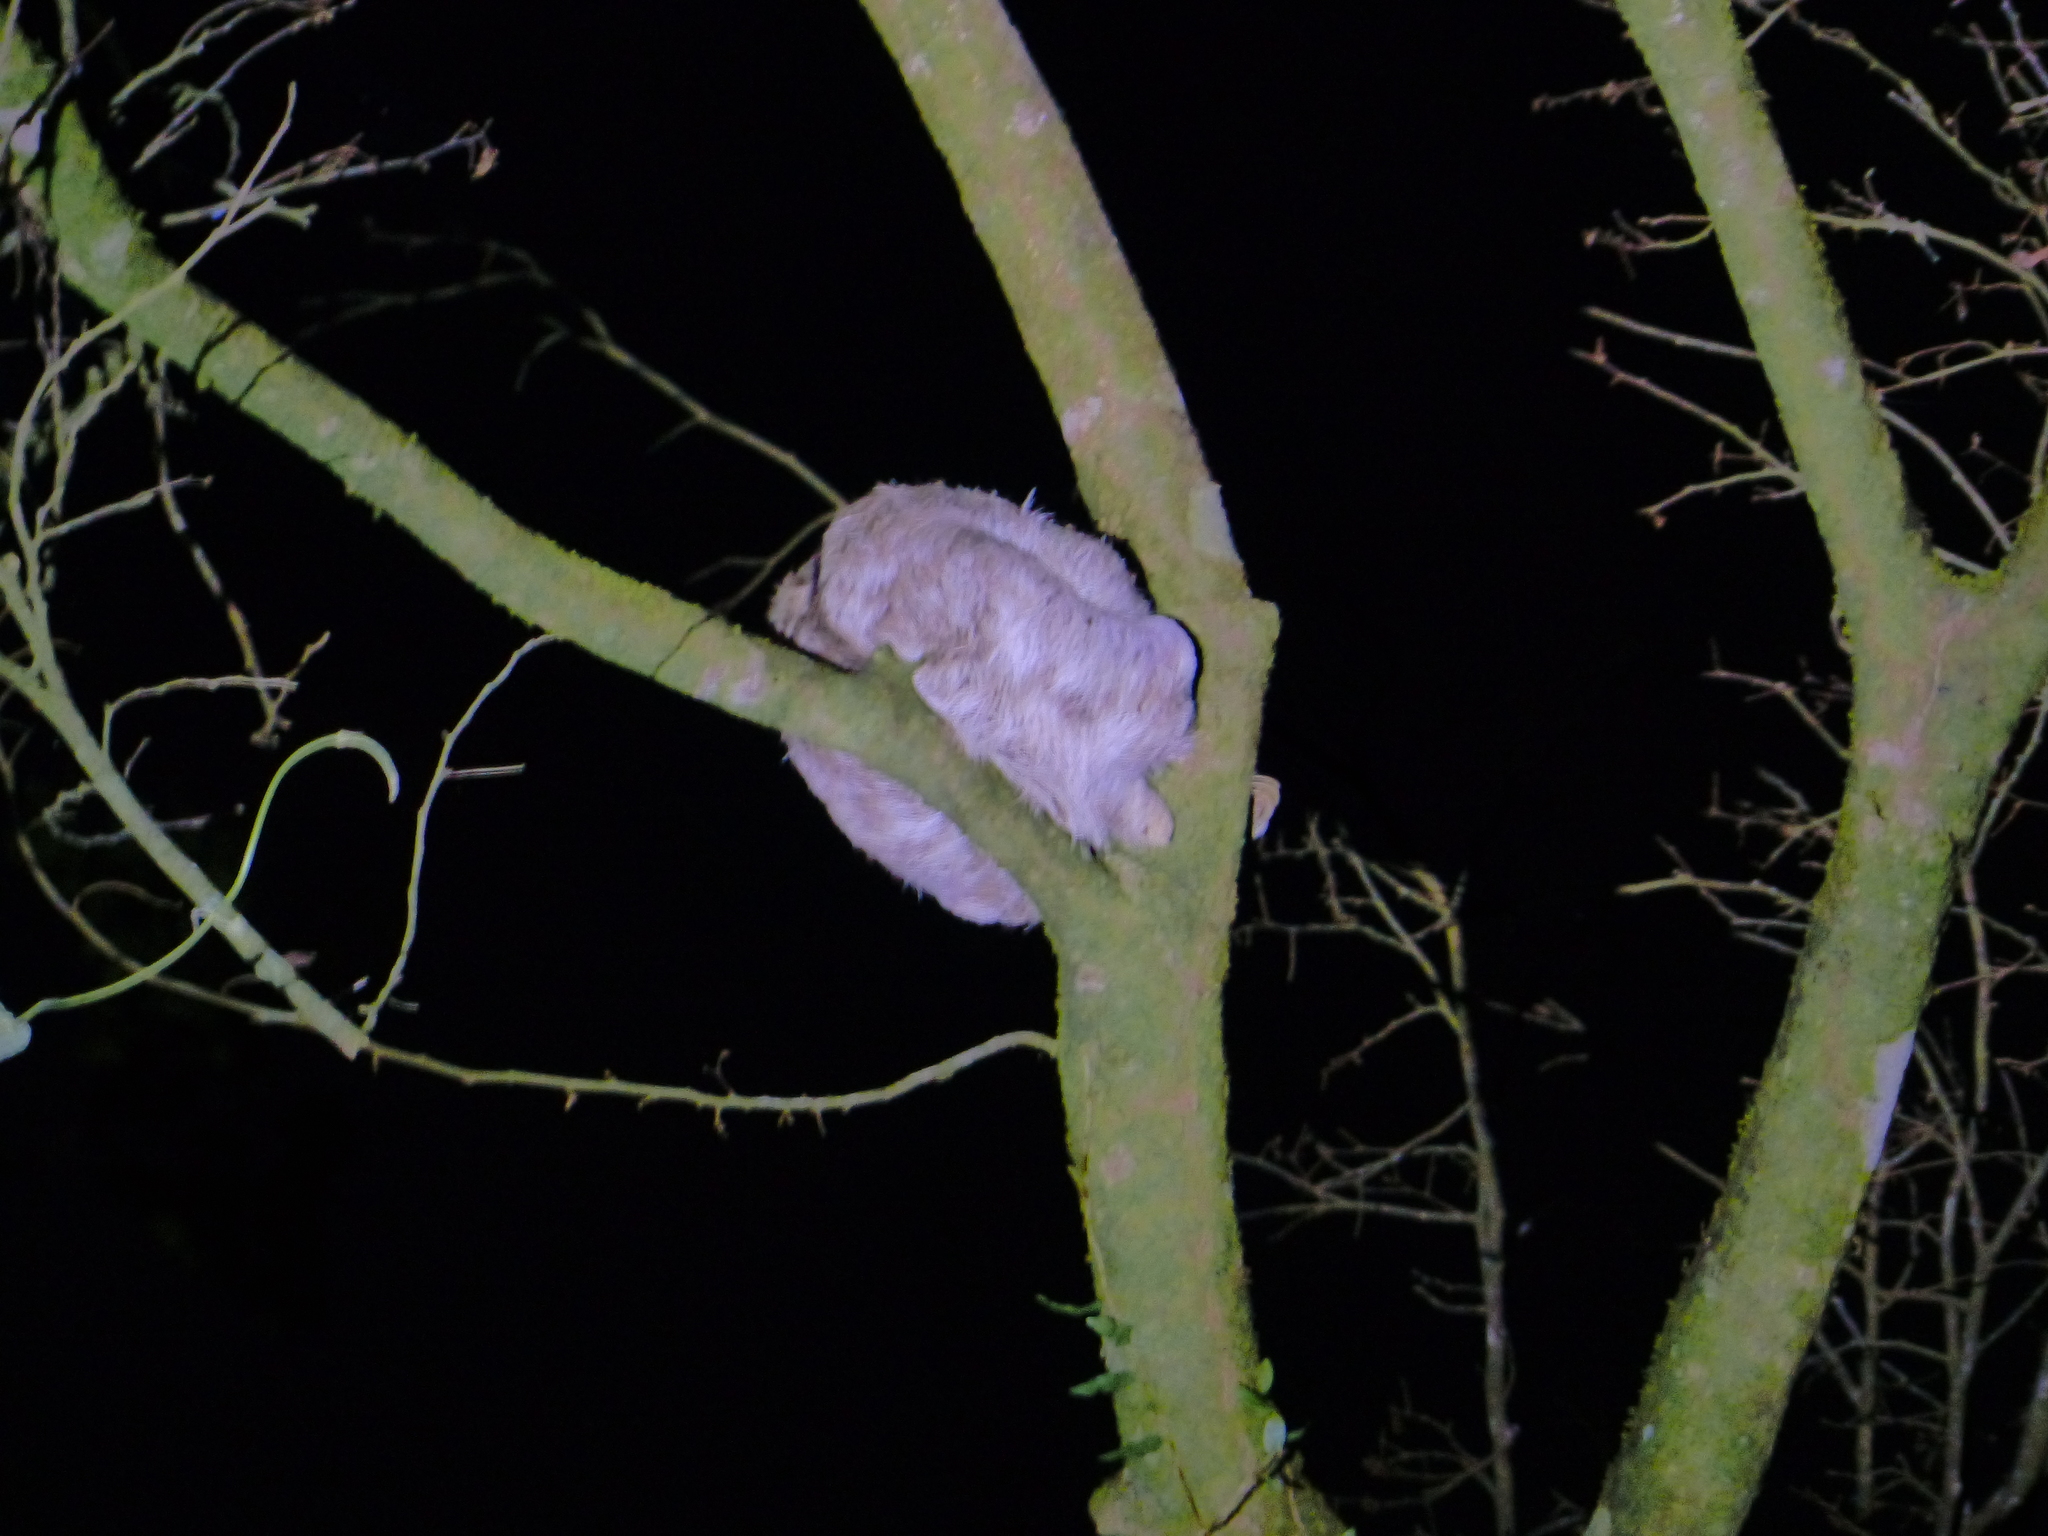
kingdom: Animalia
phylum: Chordata
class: Mammalia
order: Pilosa
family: Bradypodidae
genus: Bradypus
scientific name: Bradypus variegatus
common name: Brown-throated three-toed sloth
